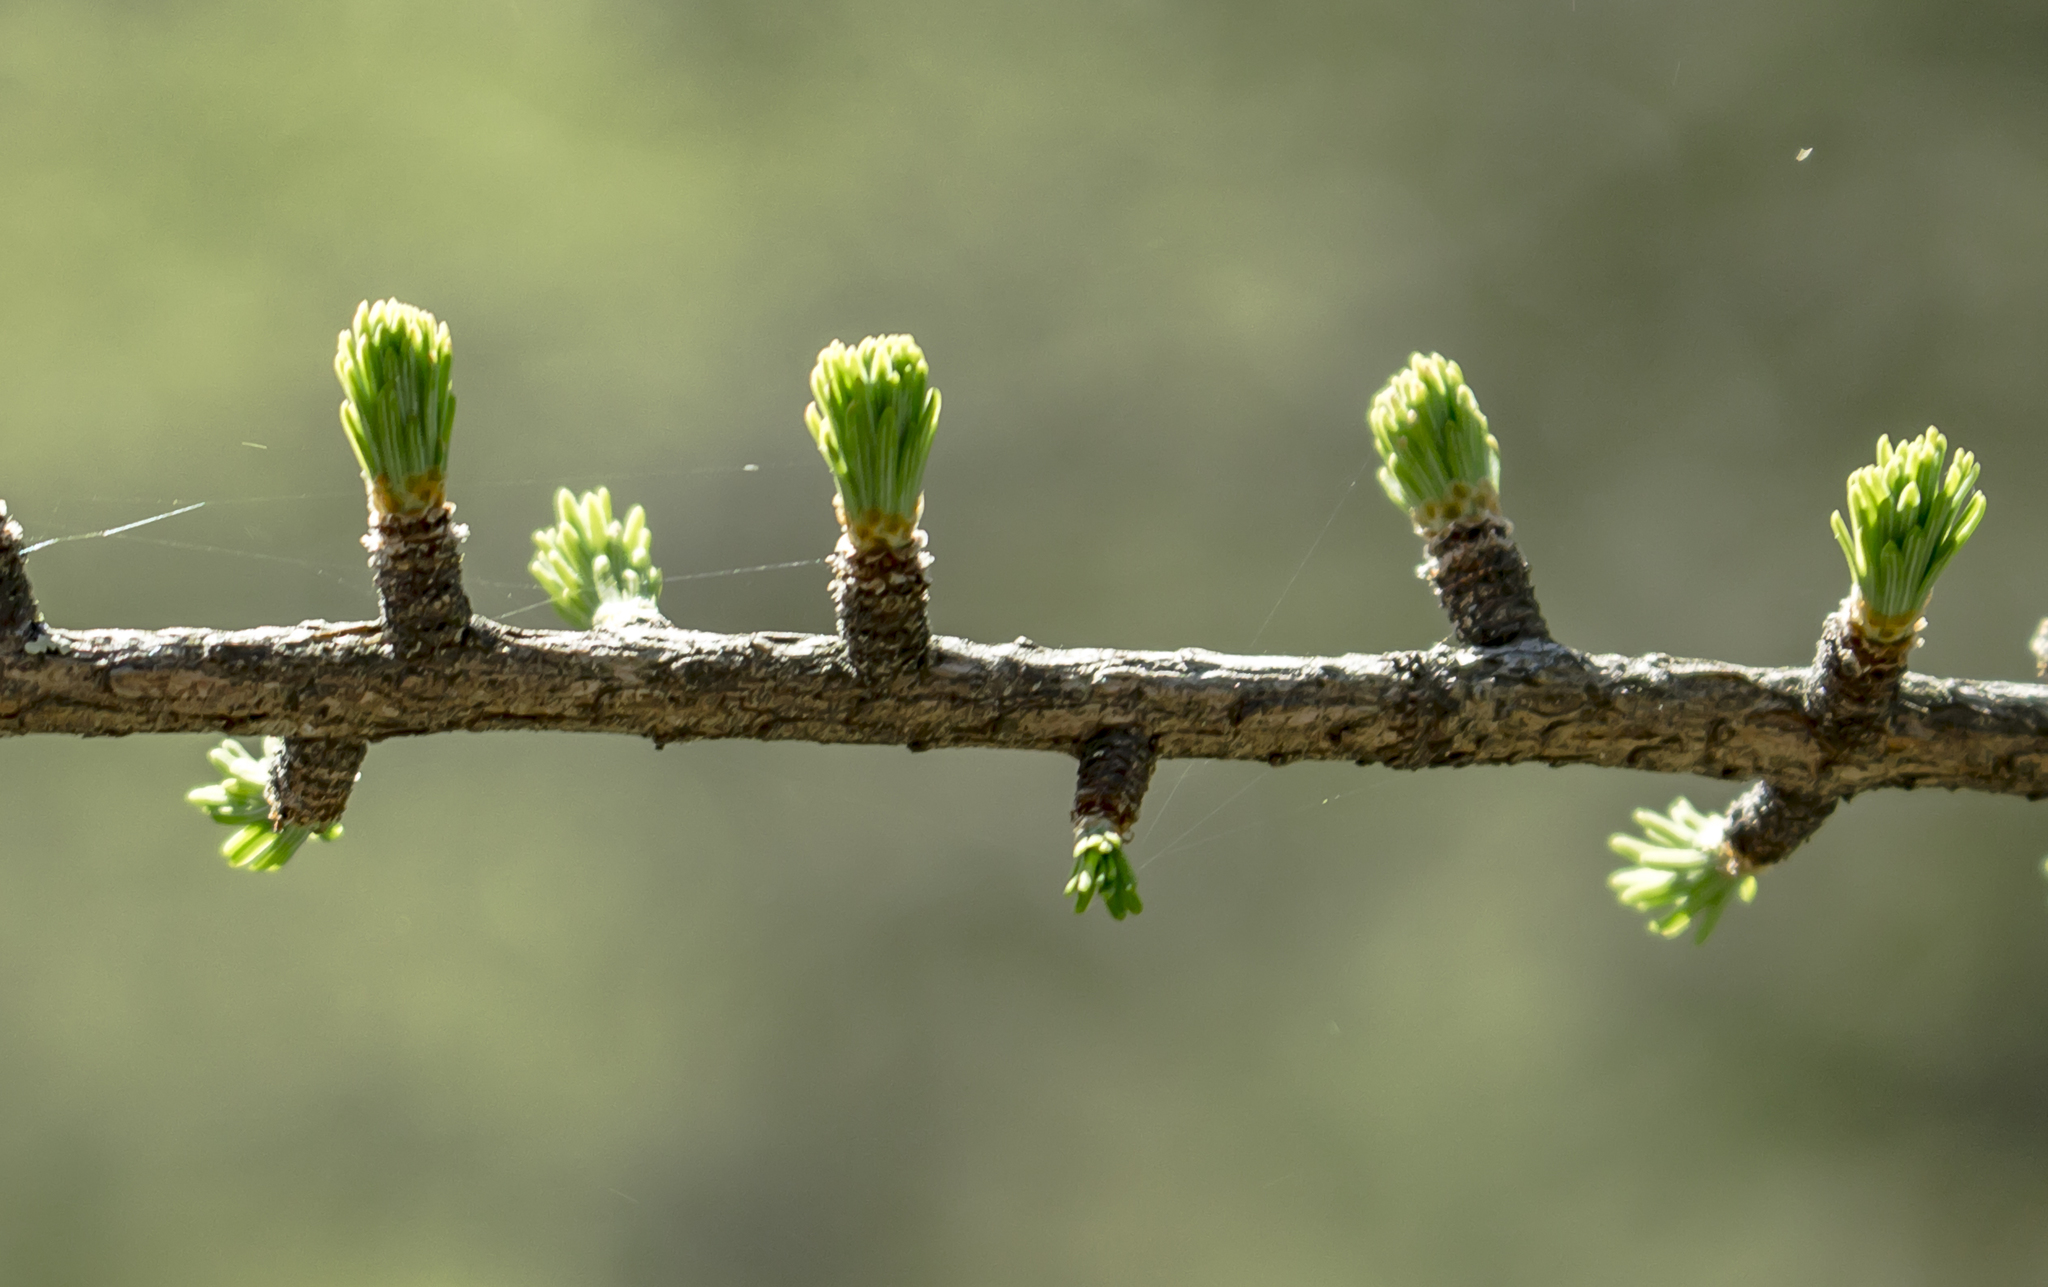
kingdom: Plantae
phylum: Tracheophyta
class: Pinopsida
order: Pinales
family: Pinaceae
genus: Larix
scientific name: Larix laricina
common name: American larch
